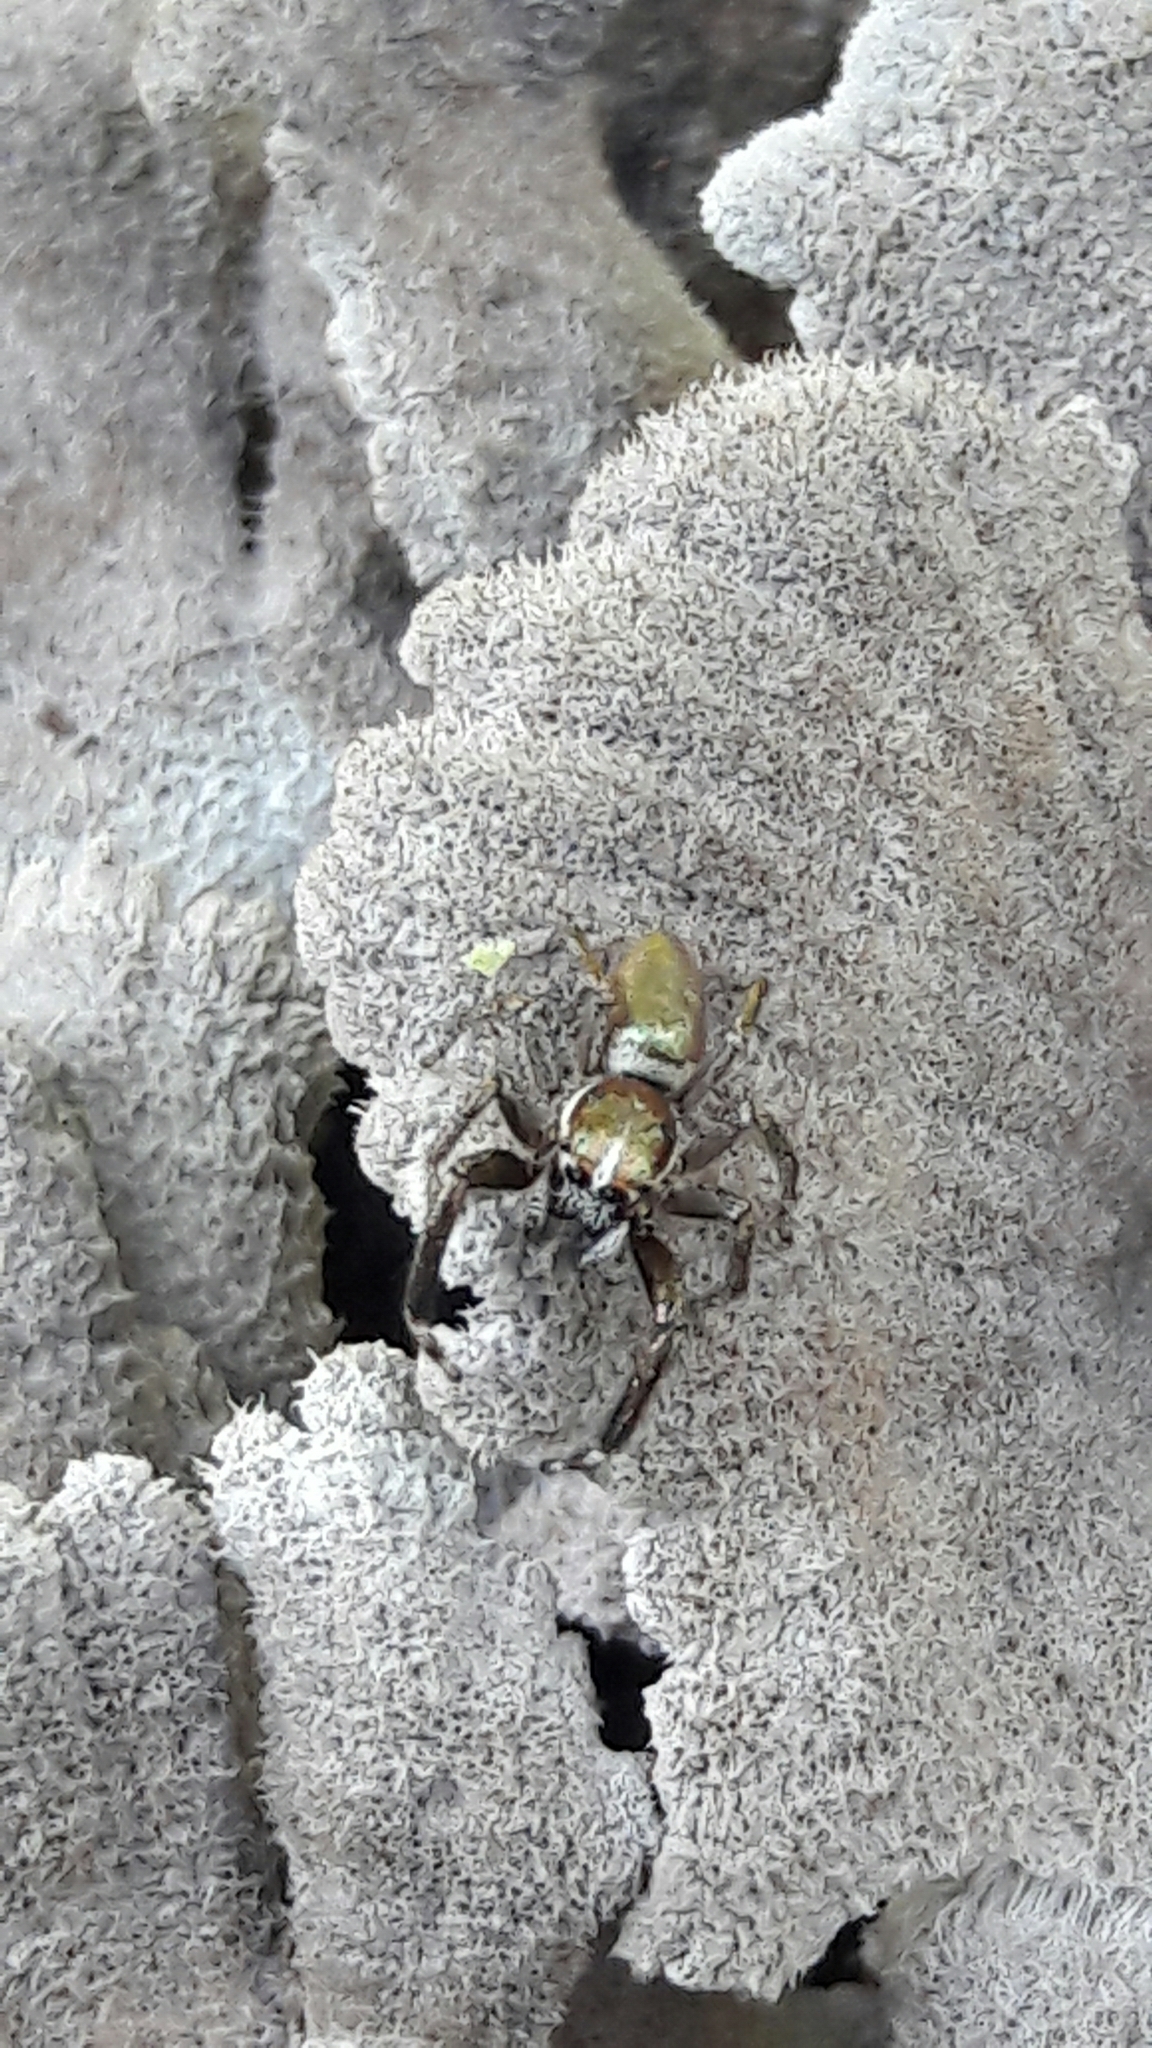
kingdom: Animalia
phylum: Arthropoda
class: Arachnida
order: Araneae
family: Salticidae
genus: Philira
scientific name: Philira micans
